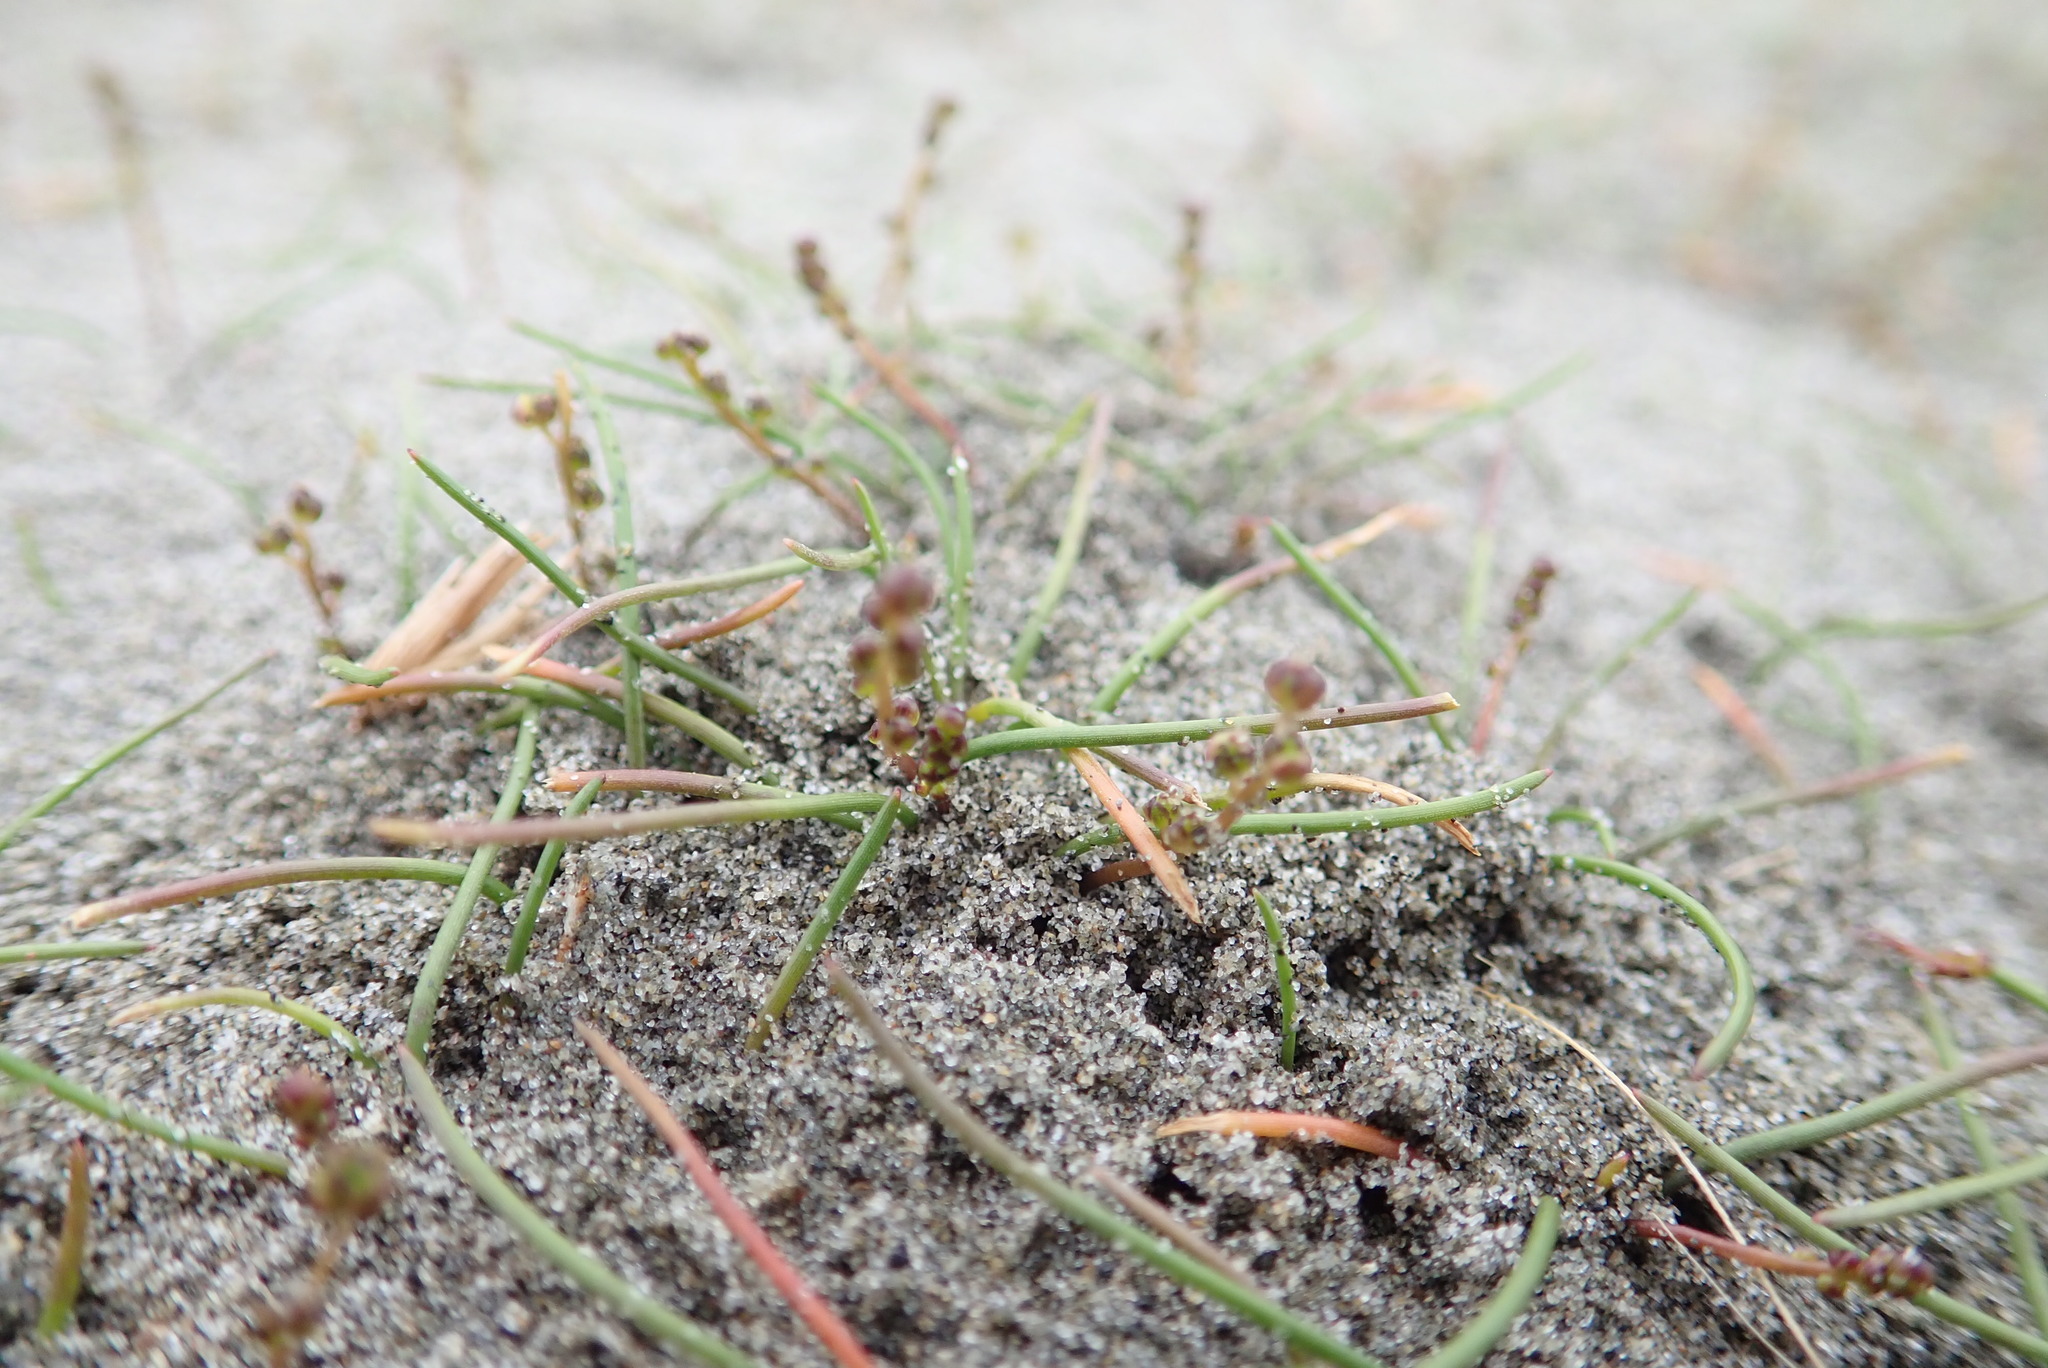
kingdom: Plantae
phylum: Tracheophyta
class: Liliopsida
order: Alismatales
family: Juncaginaceae
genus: Triglochin
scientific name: Triglochin striata
